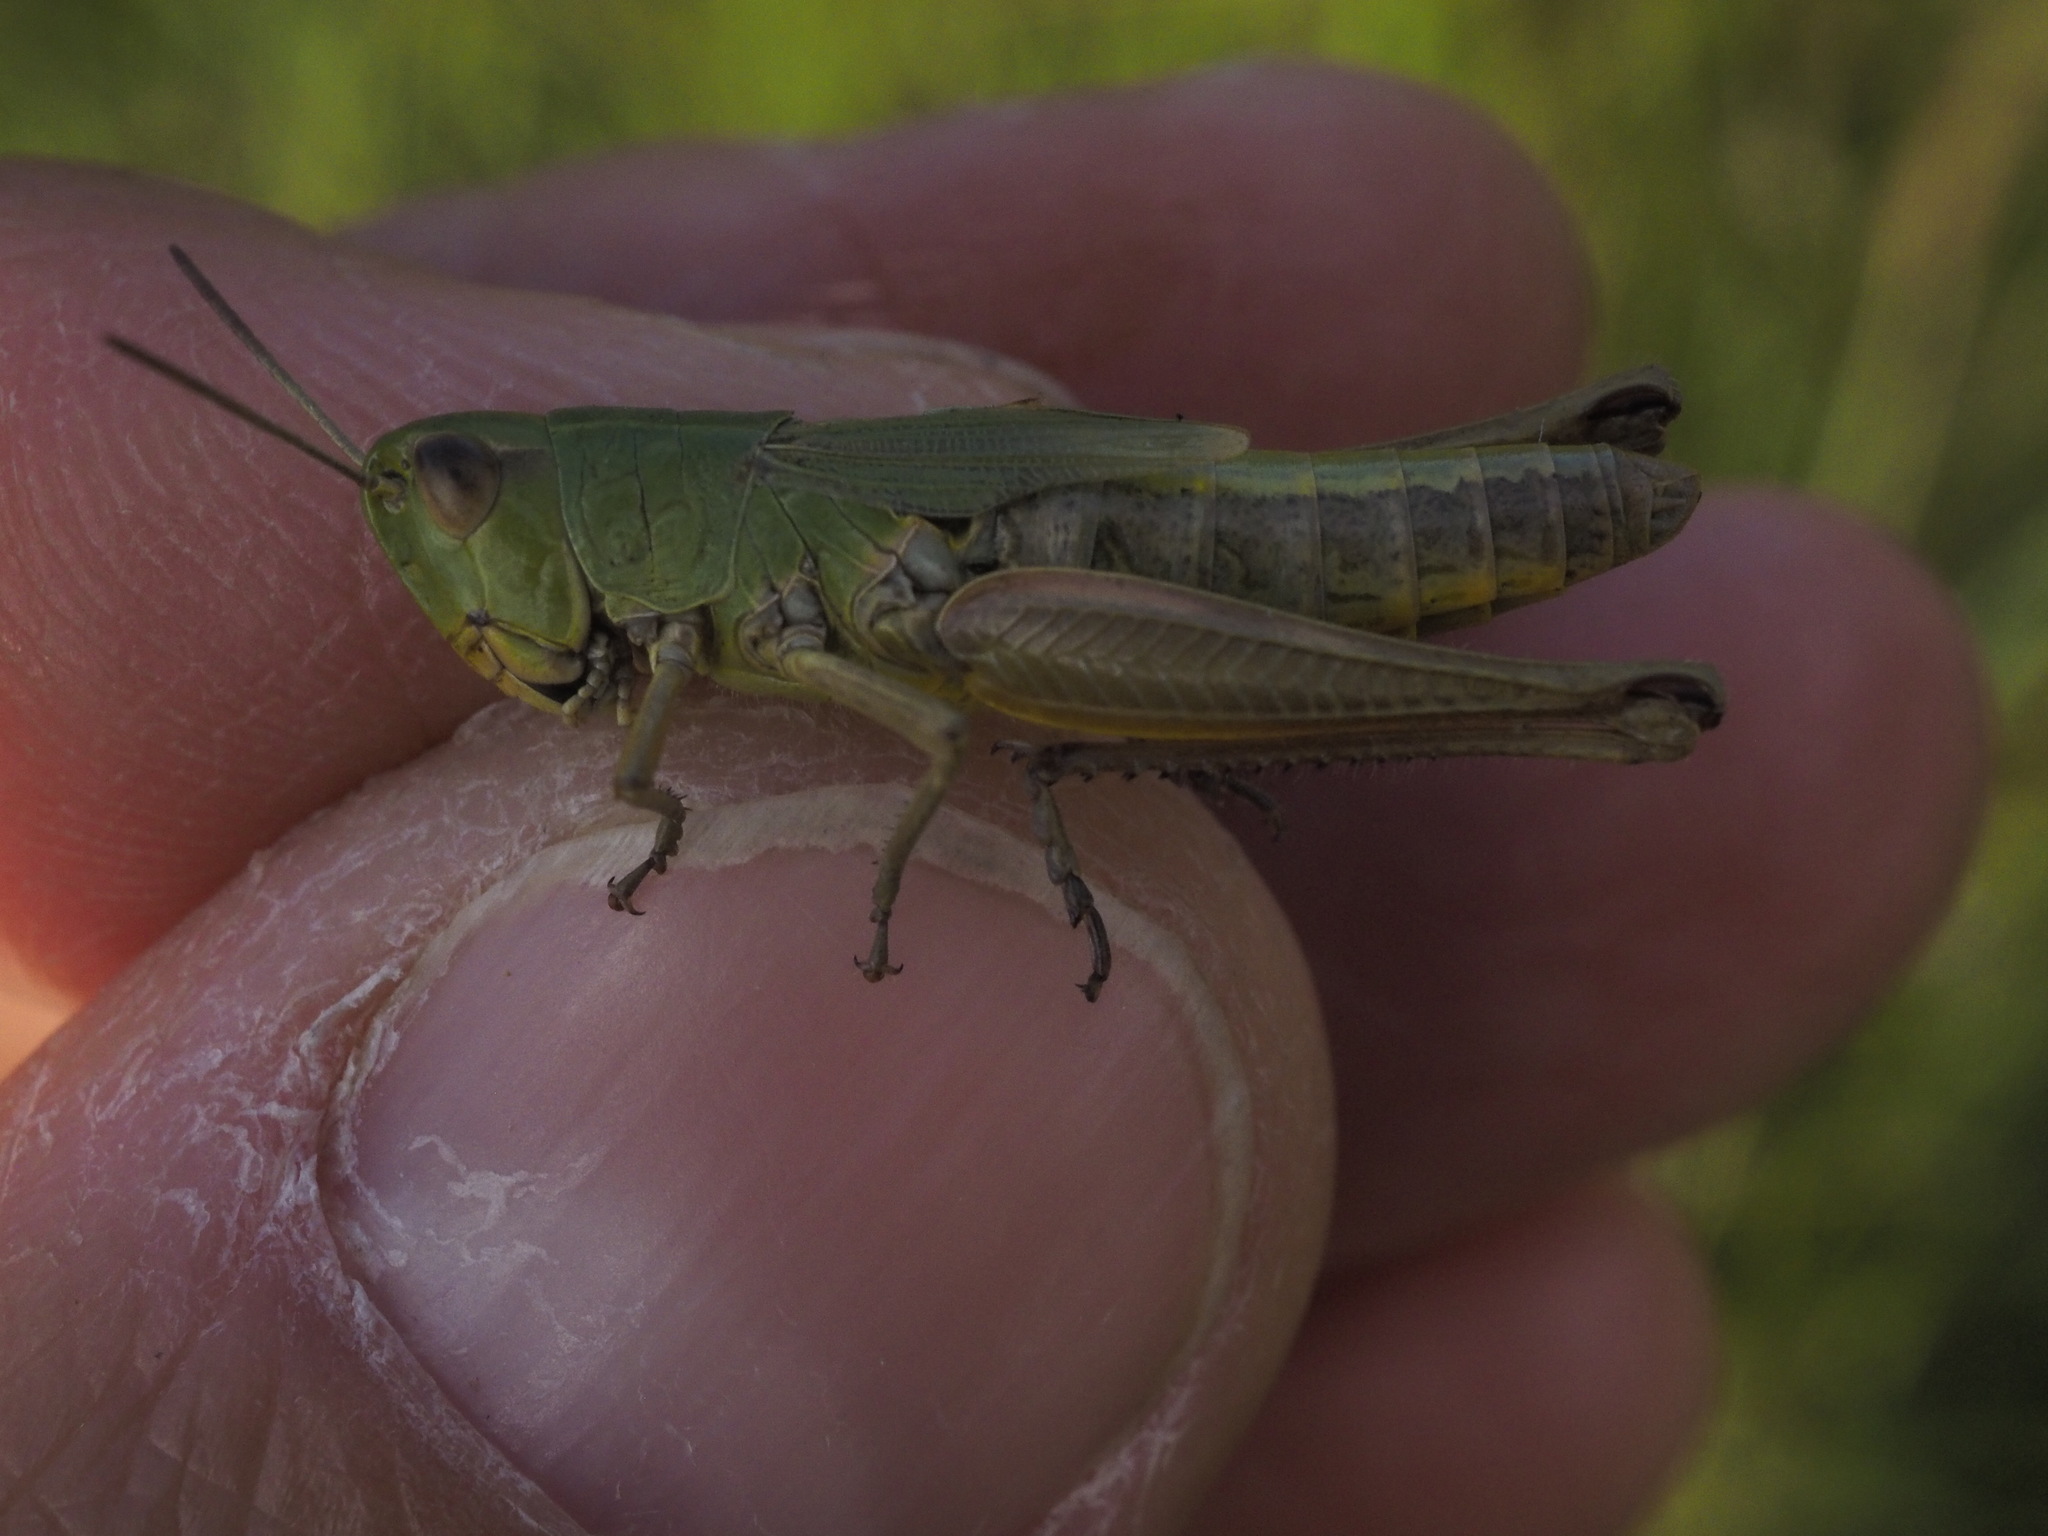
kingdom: Animalia
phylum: Arthropoda
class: Insecta
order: Orthoptera
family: Acrididae
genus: Pseudochorthippus
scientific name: Pseudochorthippus parallelus
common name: Meadow grasshopper
